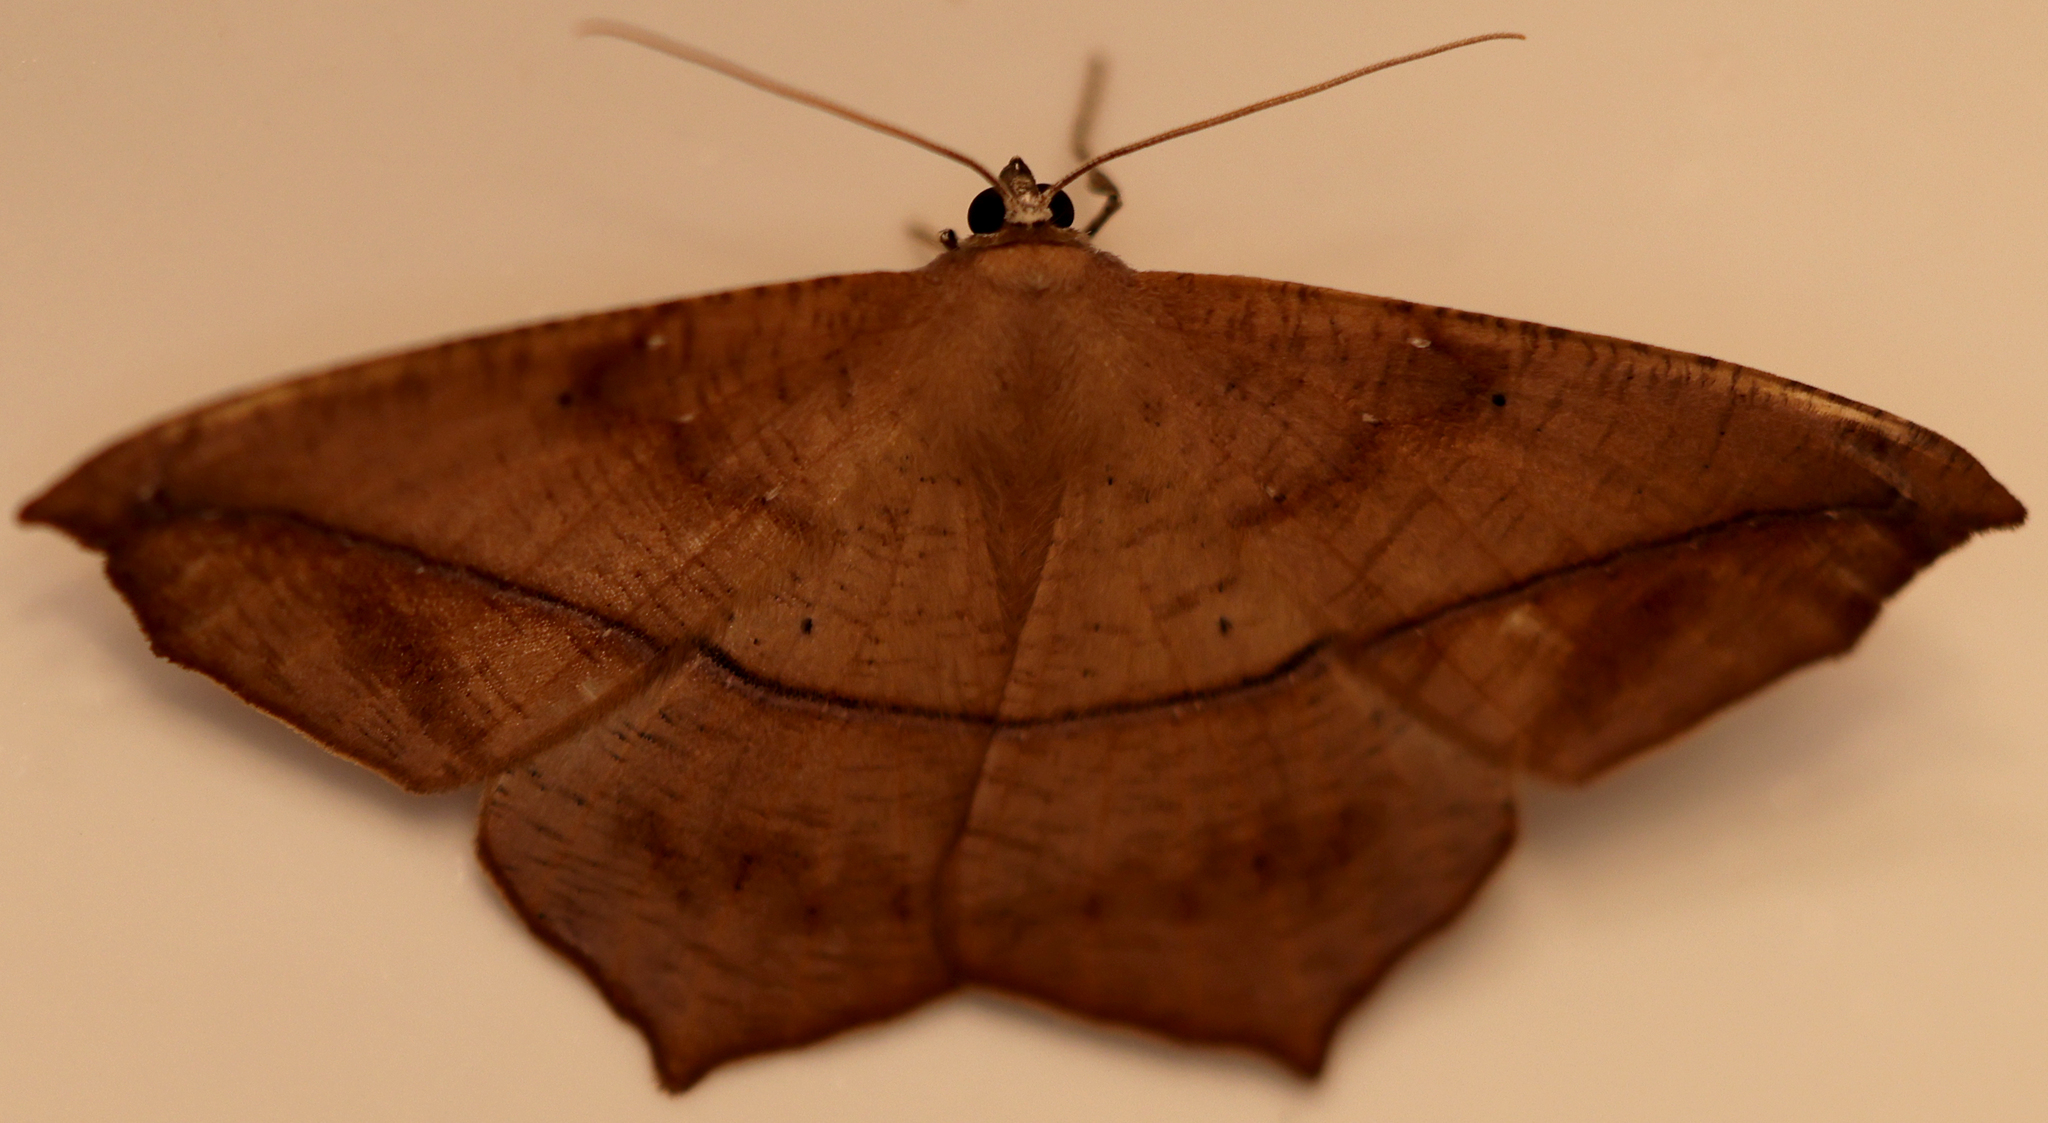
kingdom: Animalia
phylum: Arthropoda
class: Insecta
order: Lepidoptera
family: Geometridae
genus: Prochoerodes
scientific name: Prochoerodes lineola
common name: Large maple spanworm
